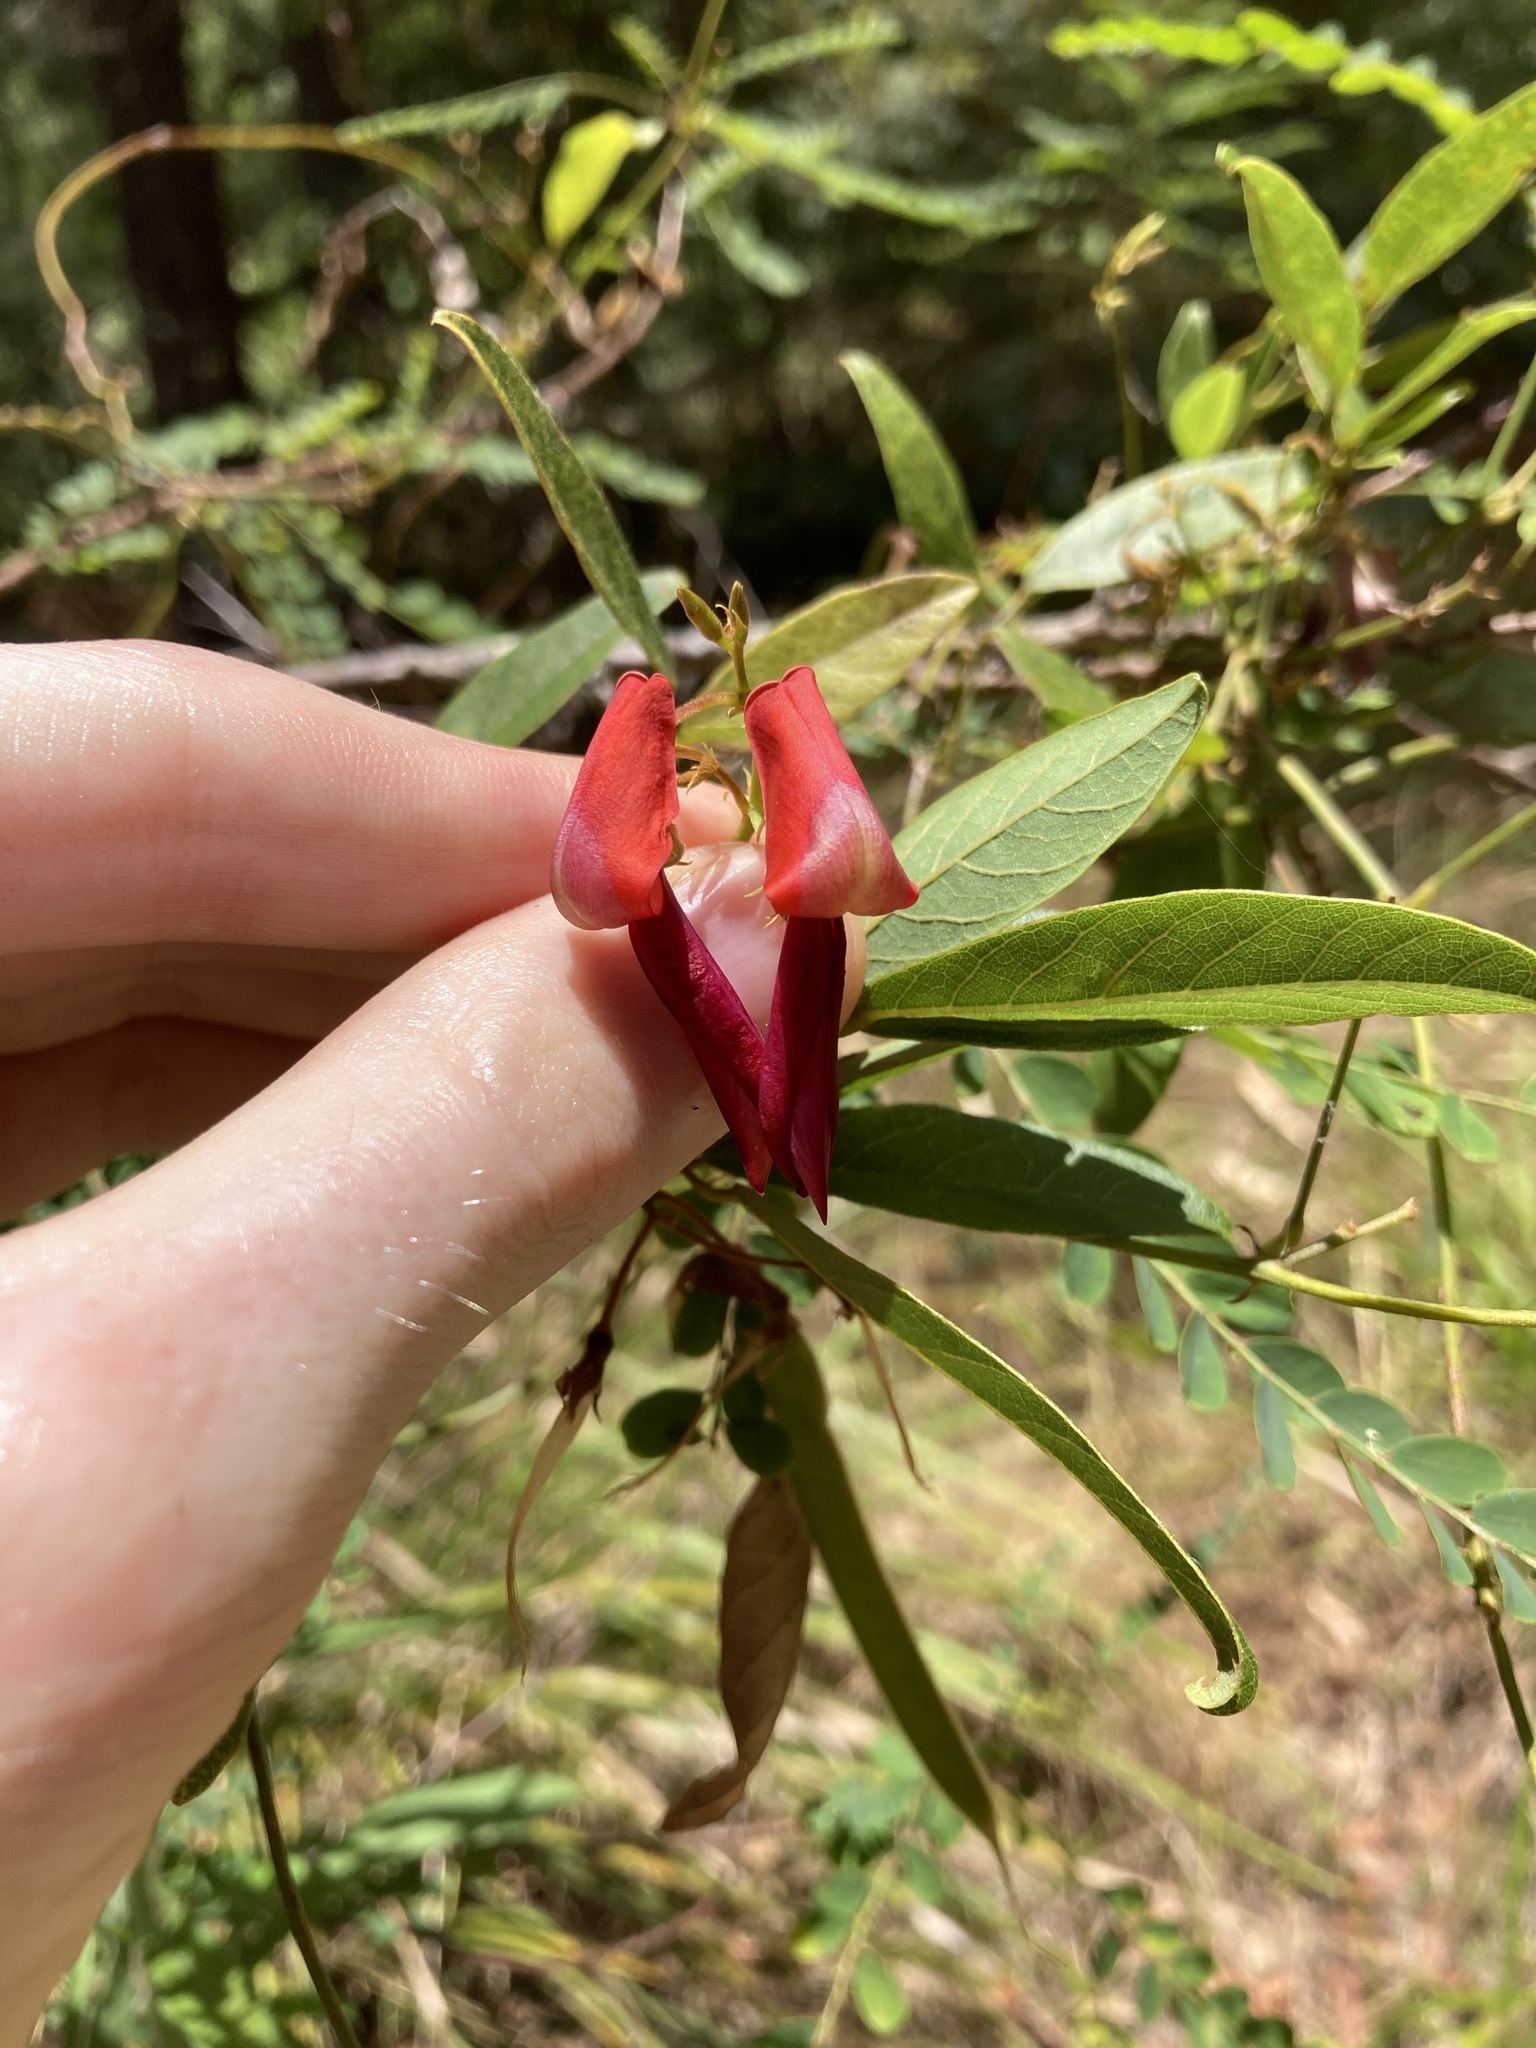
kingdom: Plantae
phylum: Tracheophyta
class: Magnoliopsida
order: Fabales
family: Fabaceae
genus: Kennedia
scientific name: Kennedia rubicunda
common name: Red kennedy-pea
